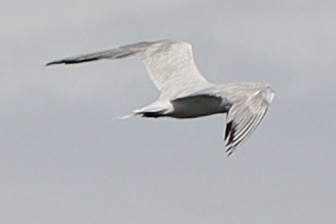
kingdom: Animalia
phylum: Chordata
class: Aves
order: Charadriiformes
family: Laridae
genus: Hydroprogne
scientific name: Hydroprogne caspia
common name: Caspian tern
